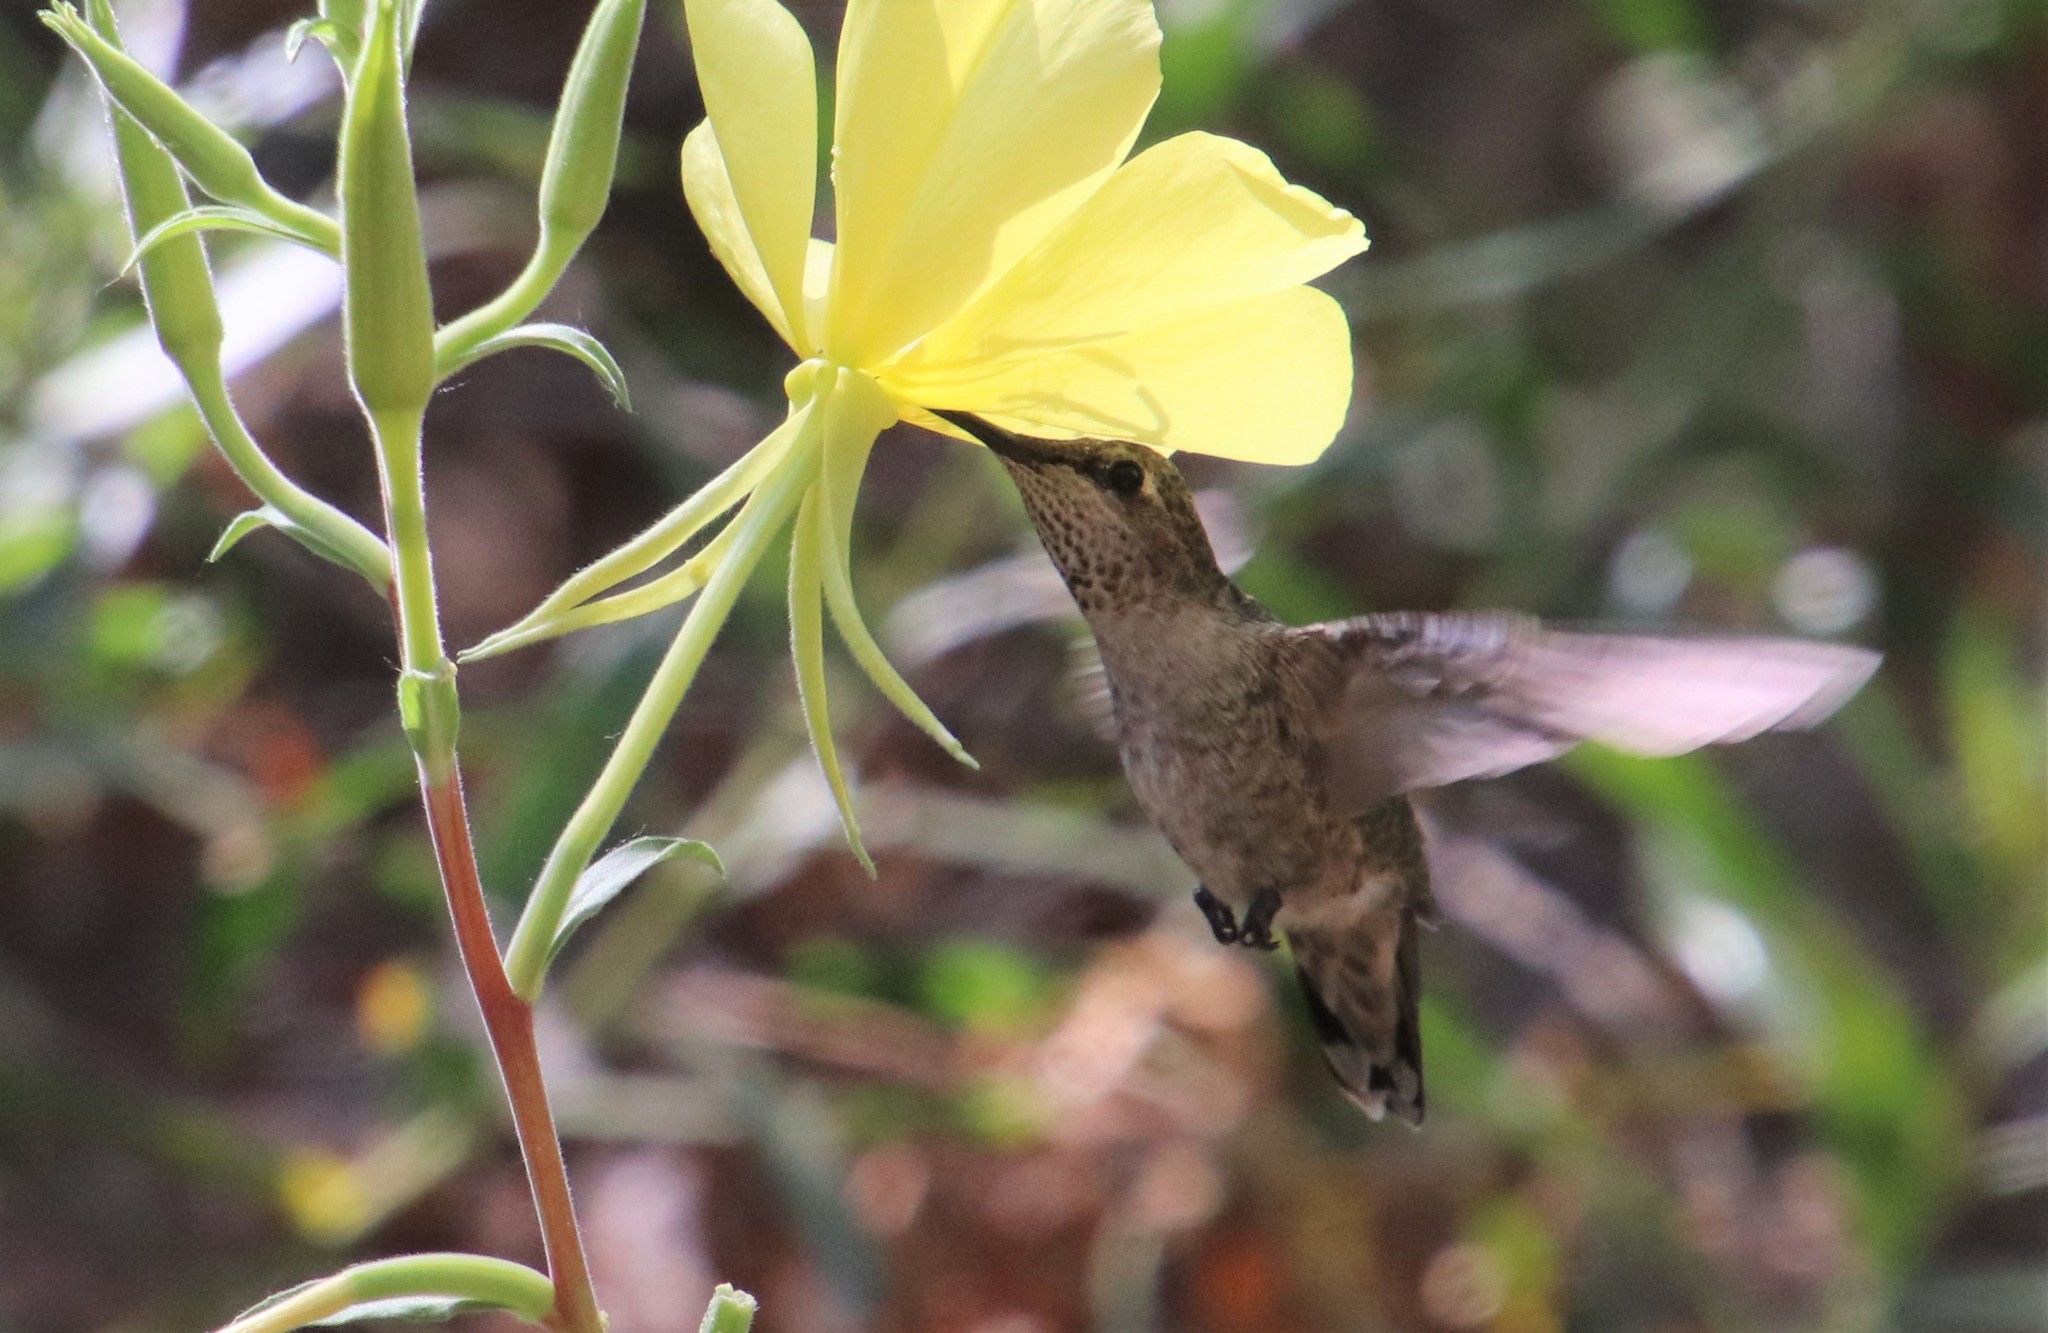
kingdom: Animalia
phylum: Chordata
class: Aves
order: Apodiformes
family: Trochilidae
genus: Calypte
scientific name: Calypte anna
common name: Anna's hummingbird
